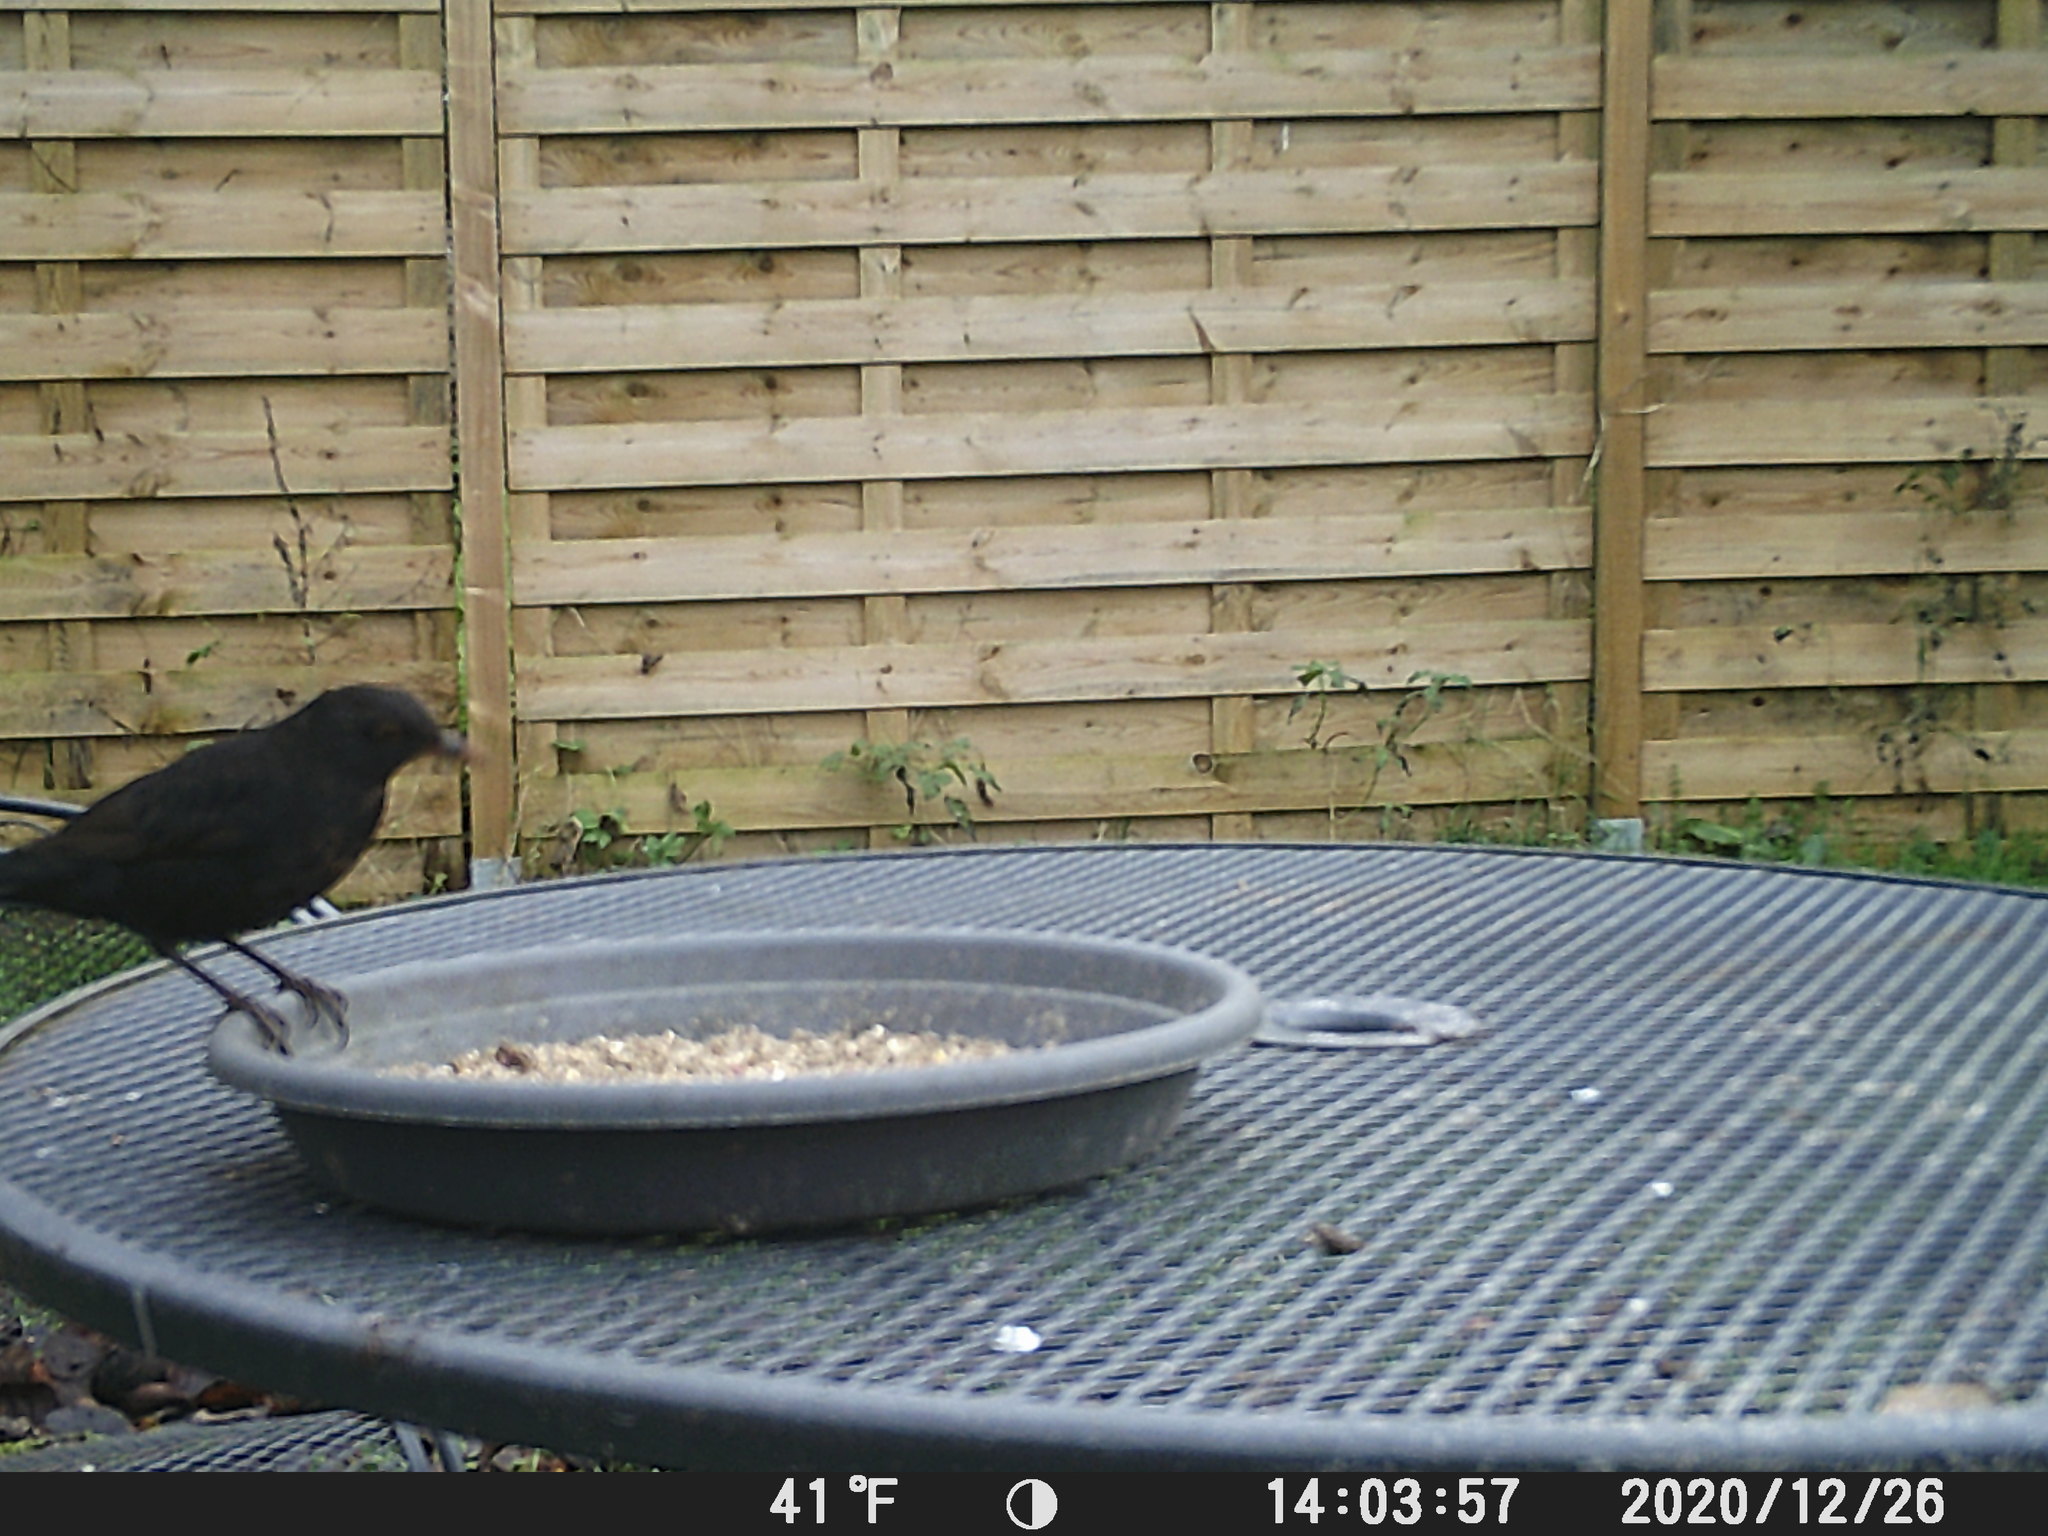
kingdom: Animalia
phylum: Chordata
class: Aves
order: Passeriformes
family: Turdidae
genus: Turdus
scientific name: Turdus merula
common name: Common blackbird
